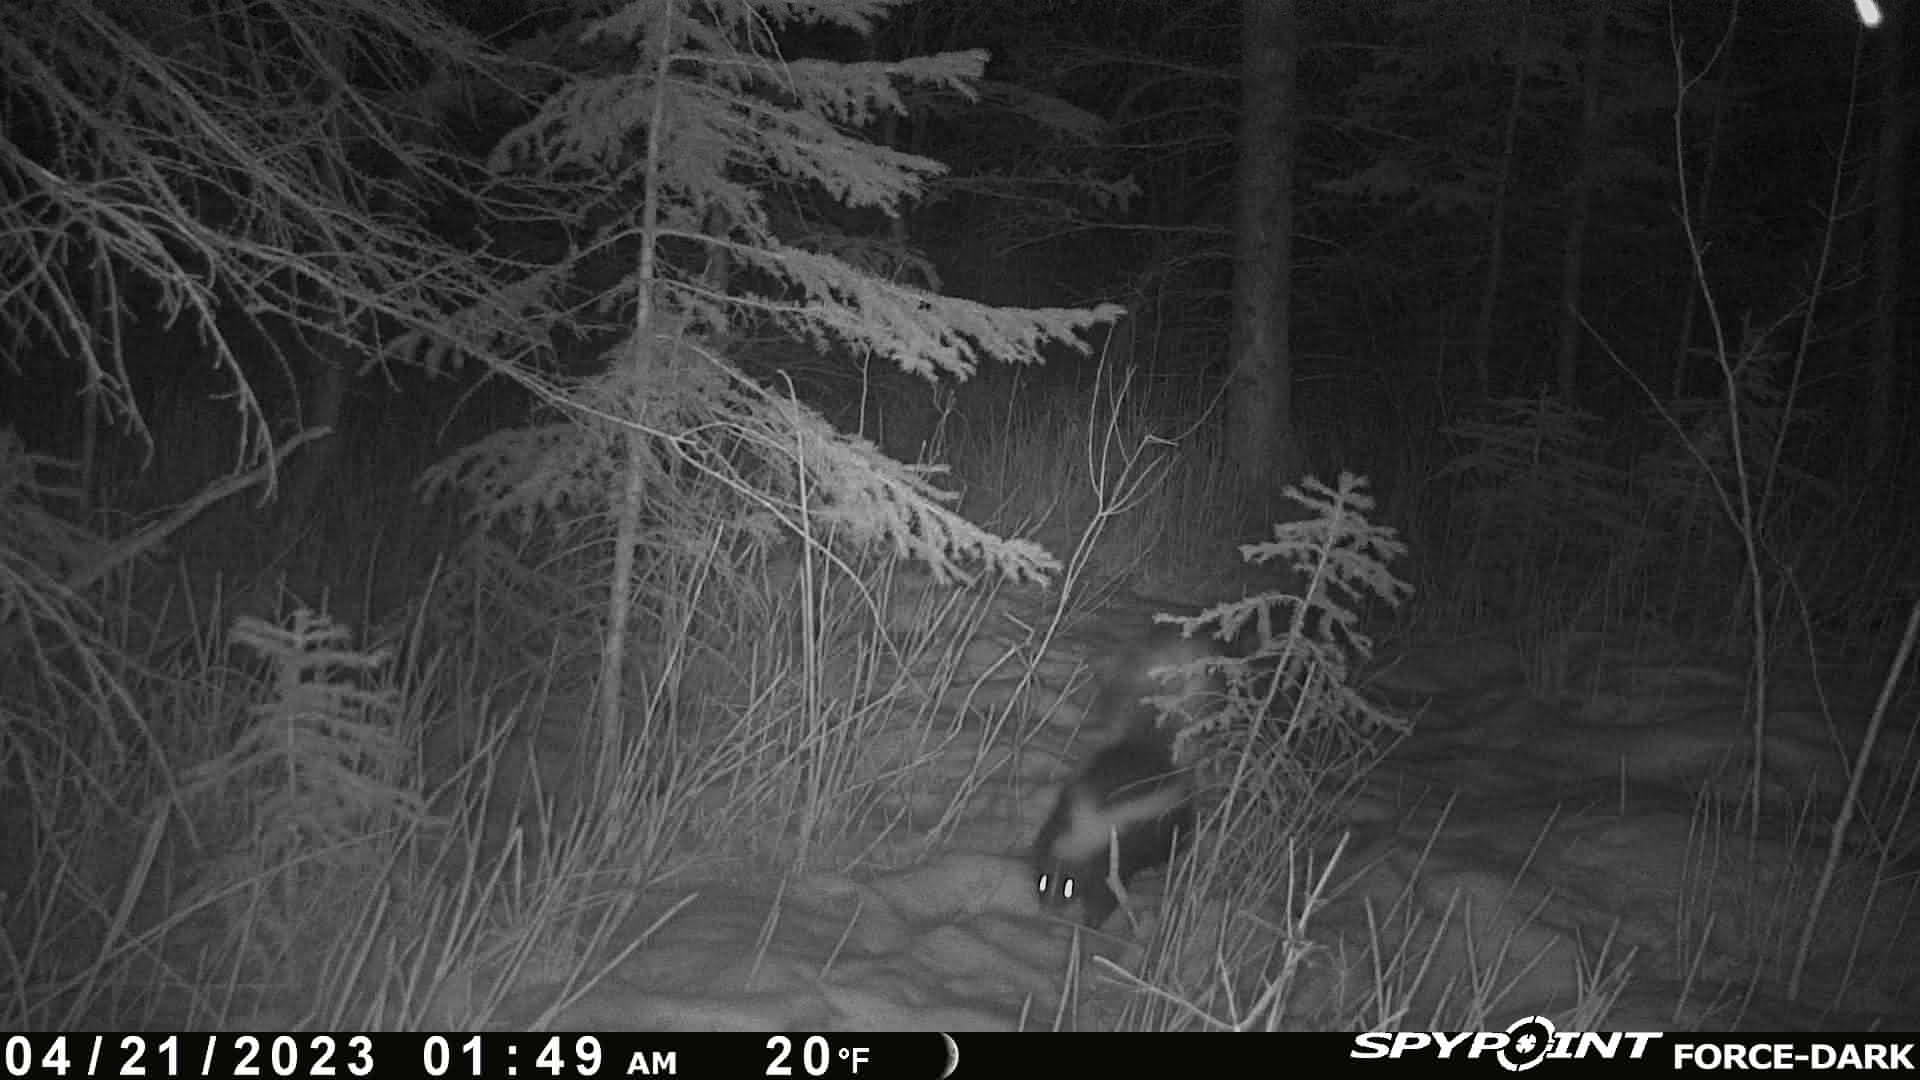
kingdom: Animalia
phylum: Chordata
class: Mammalia
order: Carnivora
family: Mephitidae
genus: Mephitis
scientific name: Mephitis mephitis
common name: Striped skunk
